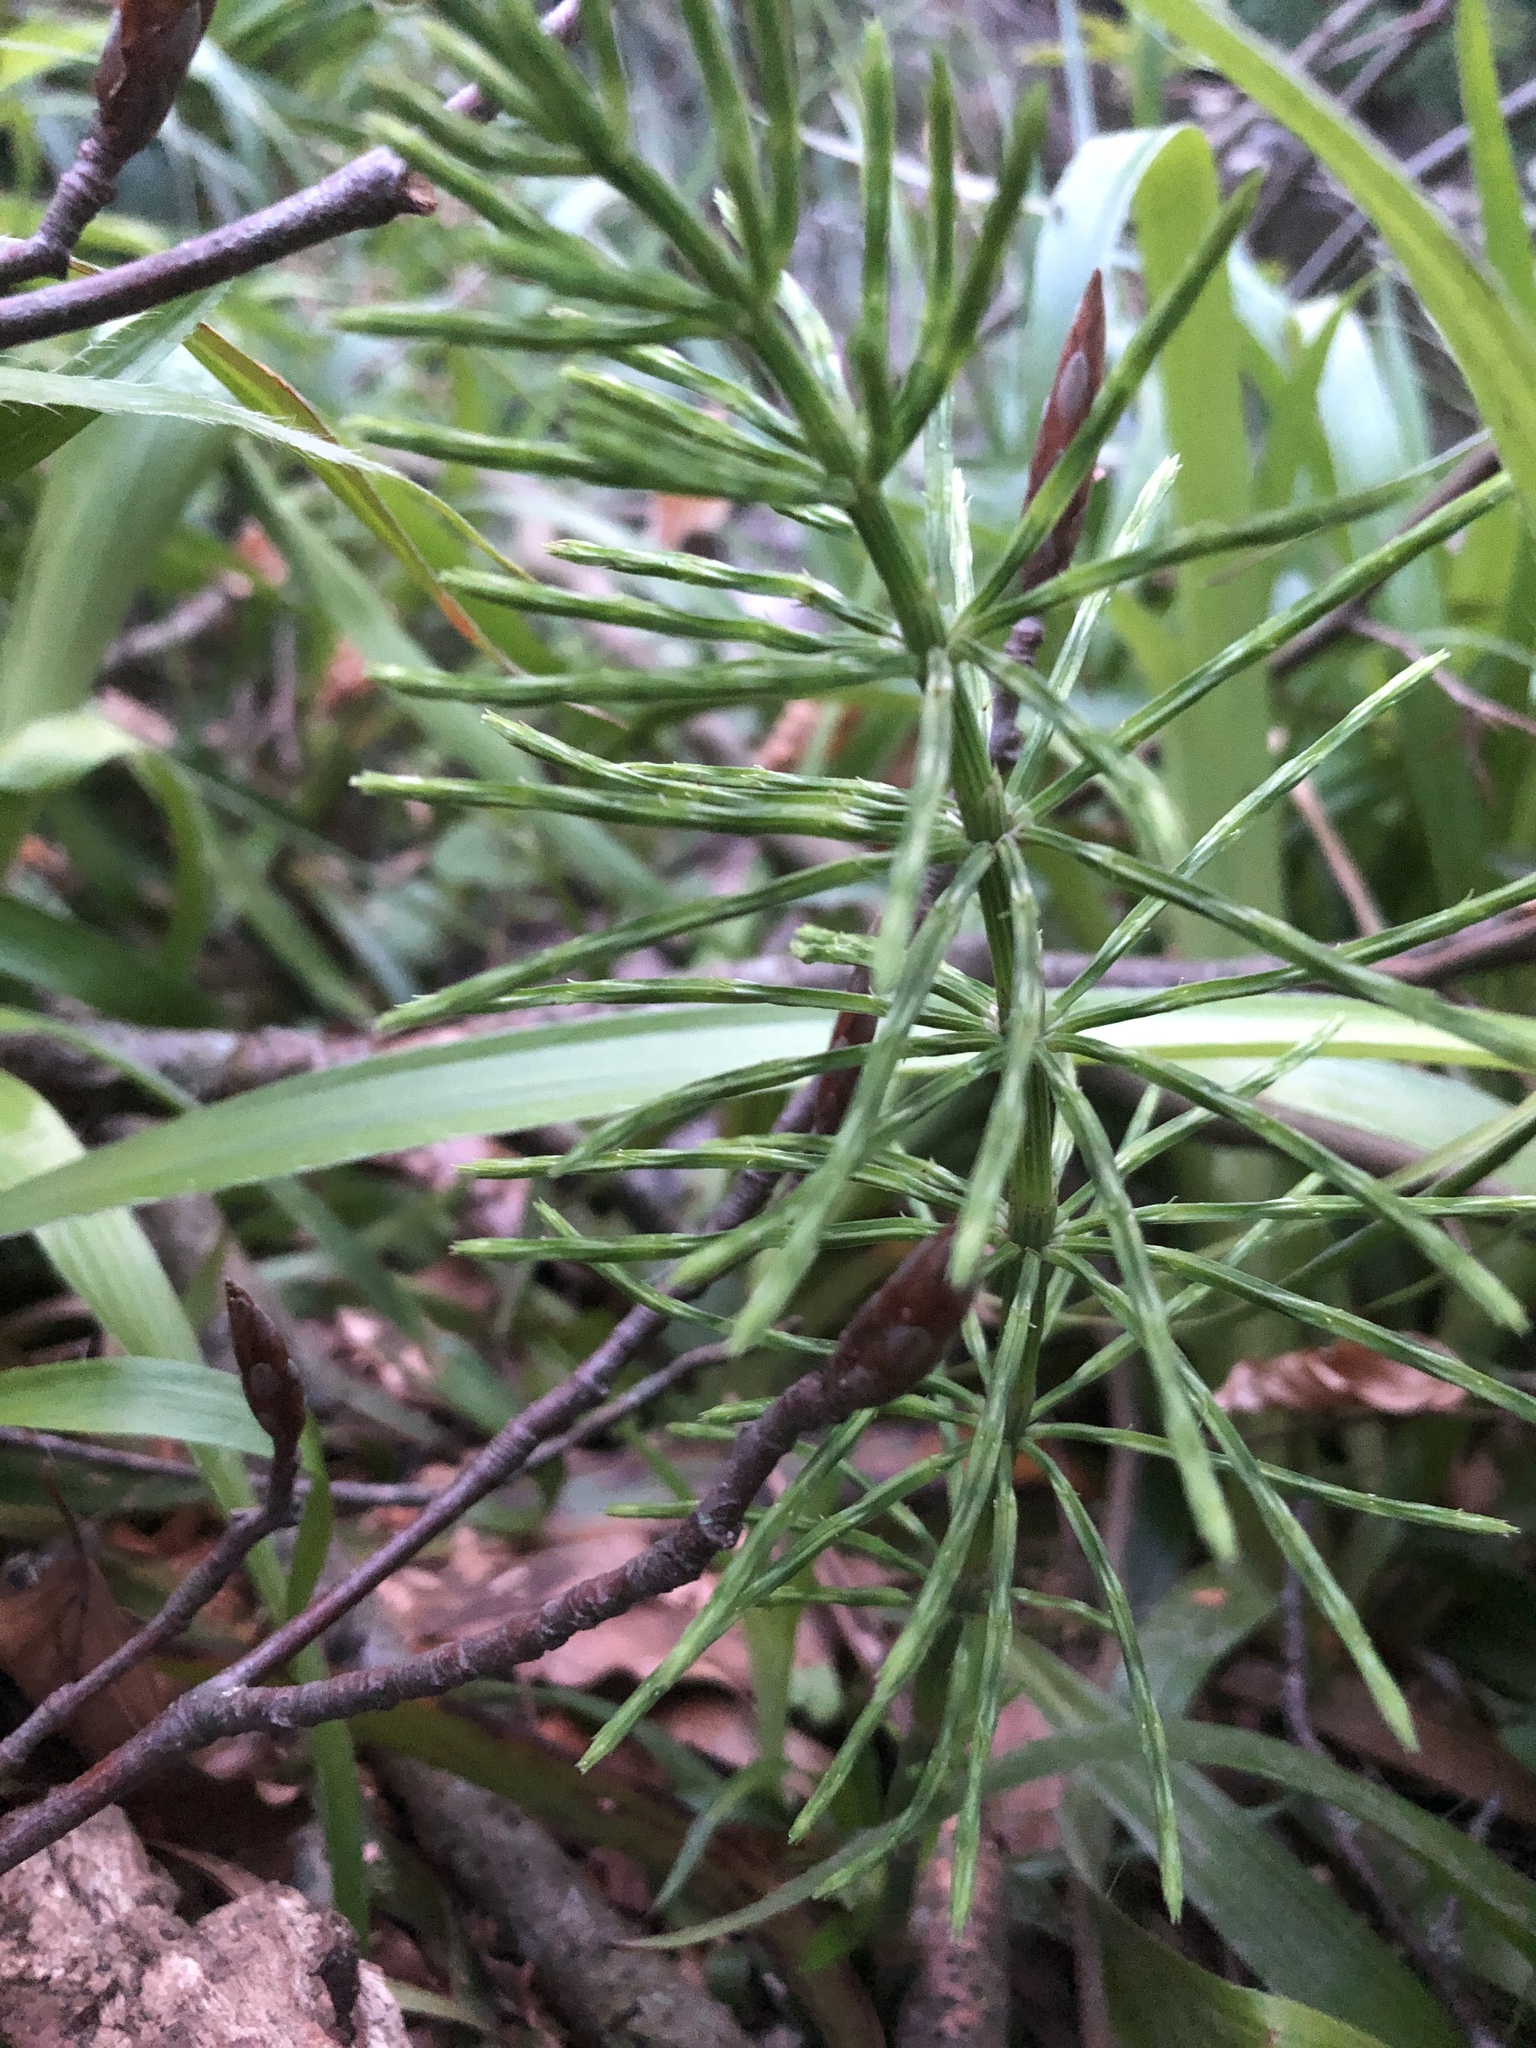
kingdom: Plantae
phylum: Tracheophyta
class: Polypodiopsida
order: Equisetales
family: Equisetaceae
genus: Equisetum
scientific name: Equisetum arvense
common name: Field horsetail
